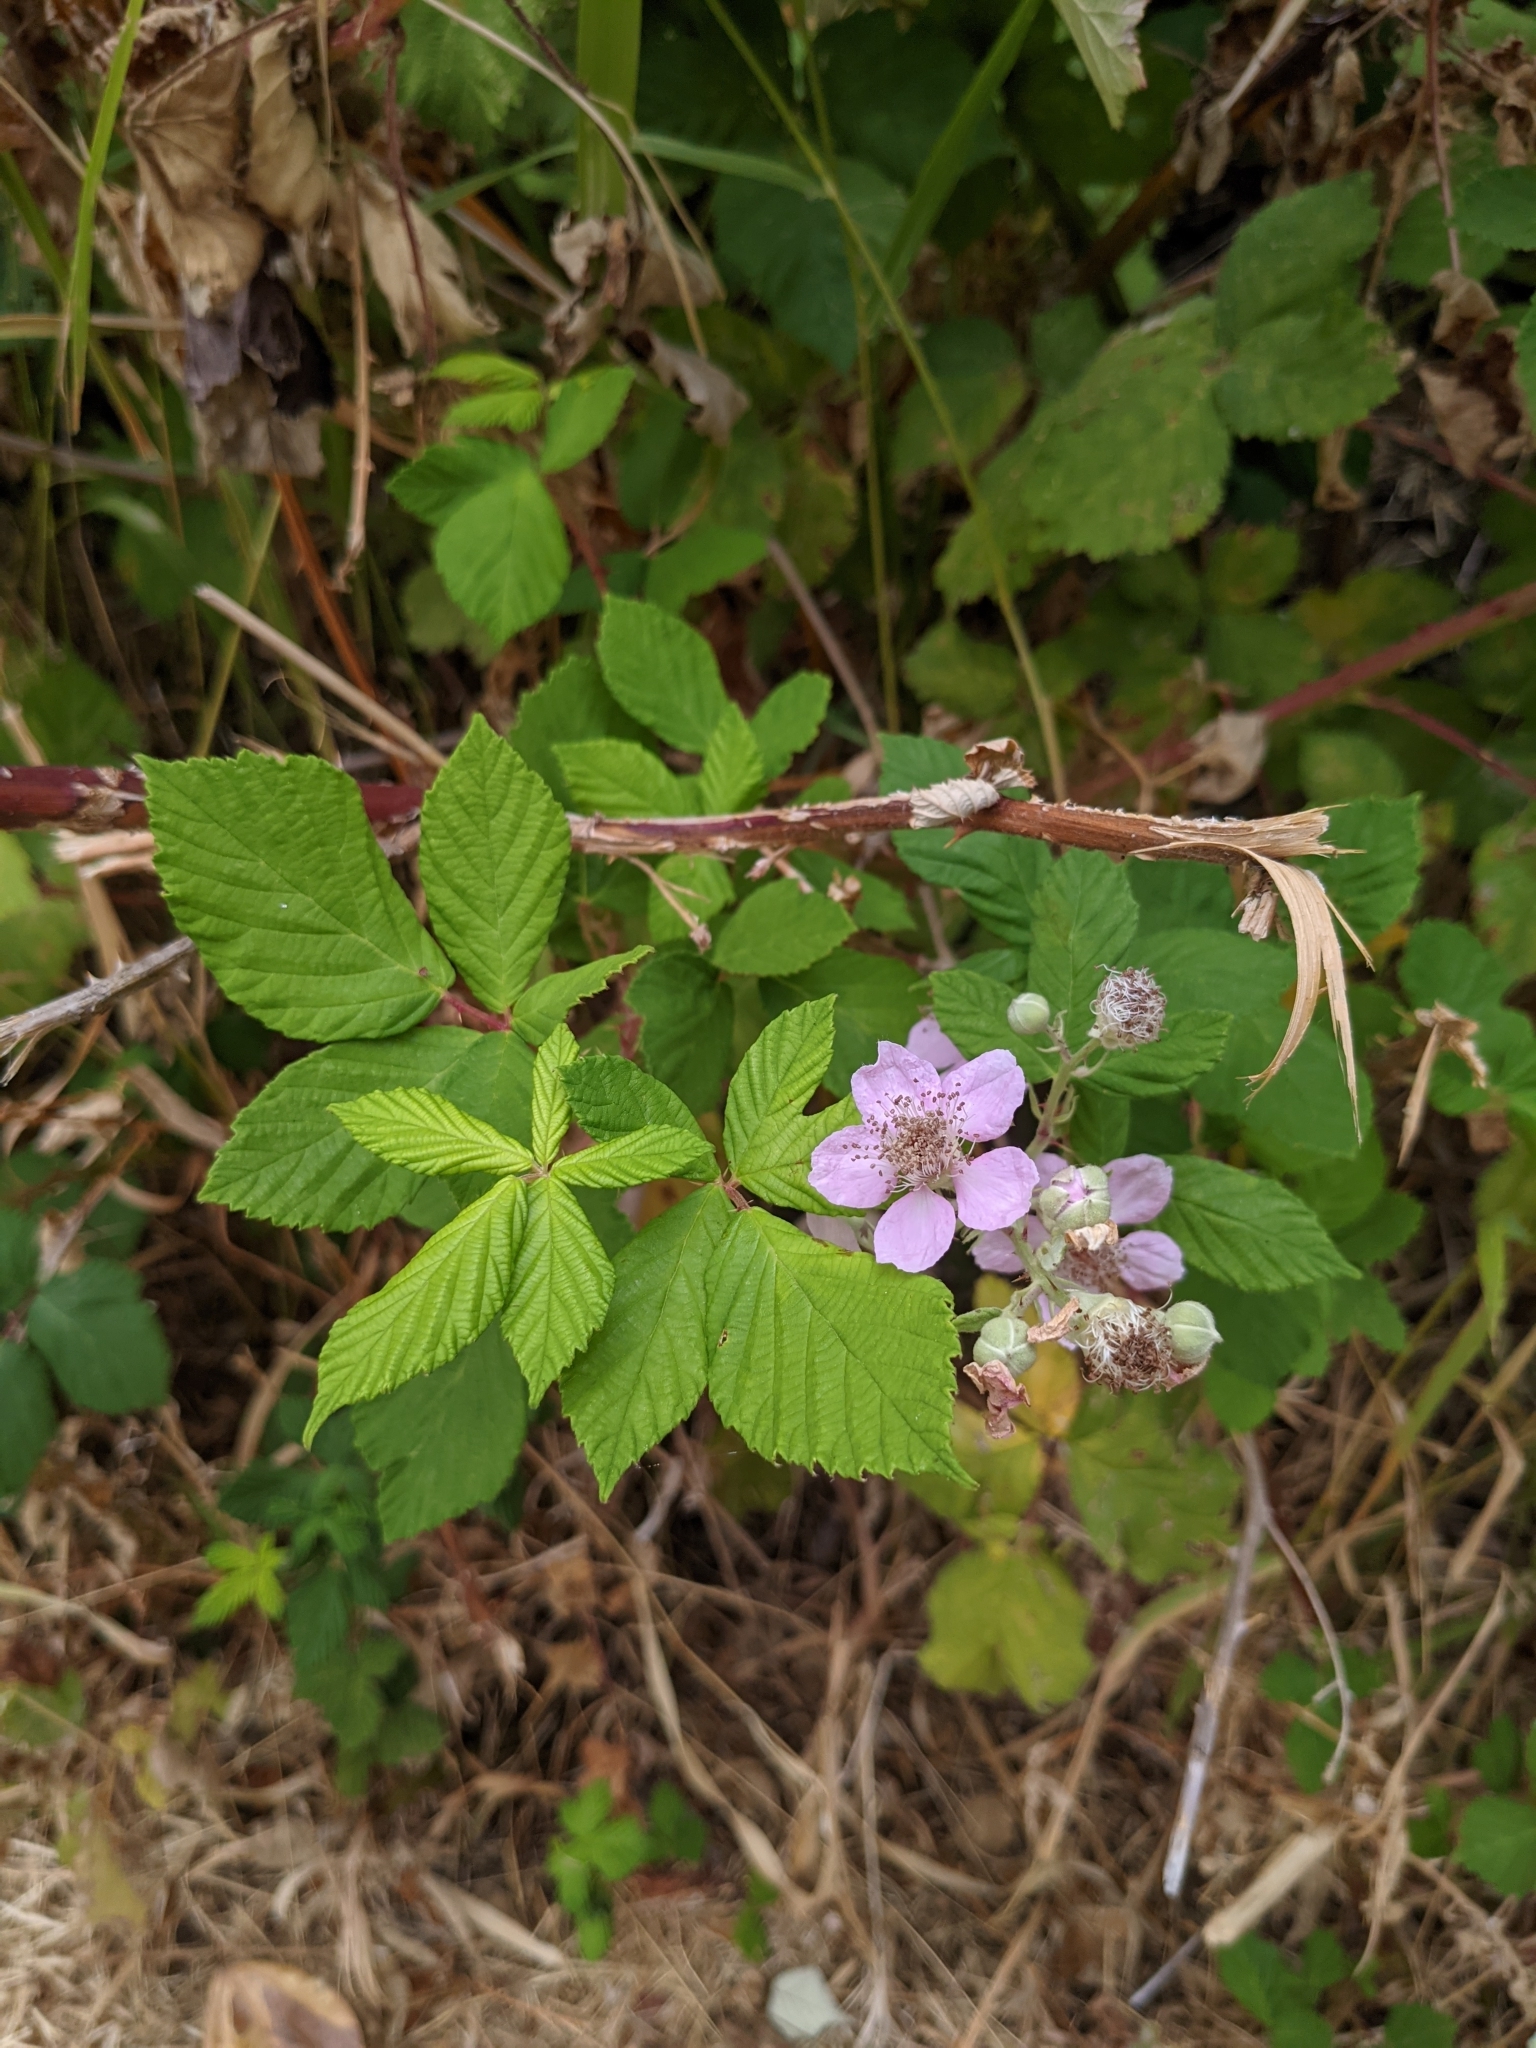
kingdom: Plantae
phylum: Tracheophyta
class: Magnoliopsida
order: Rosales
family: Rosaceae
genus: Rubus
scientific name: Rubus bifrons
